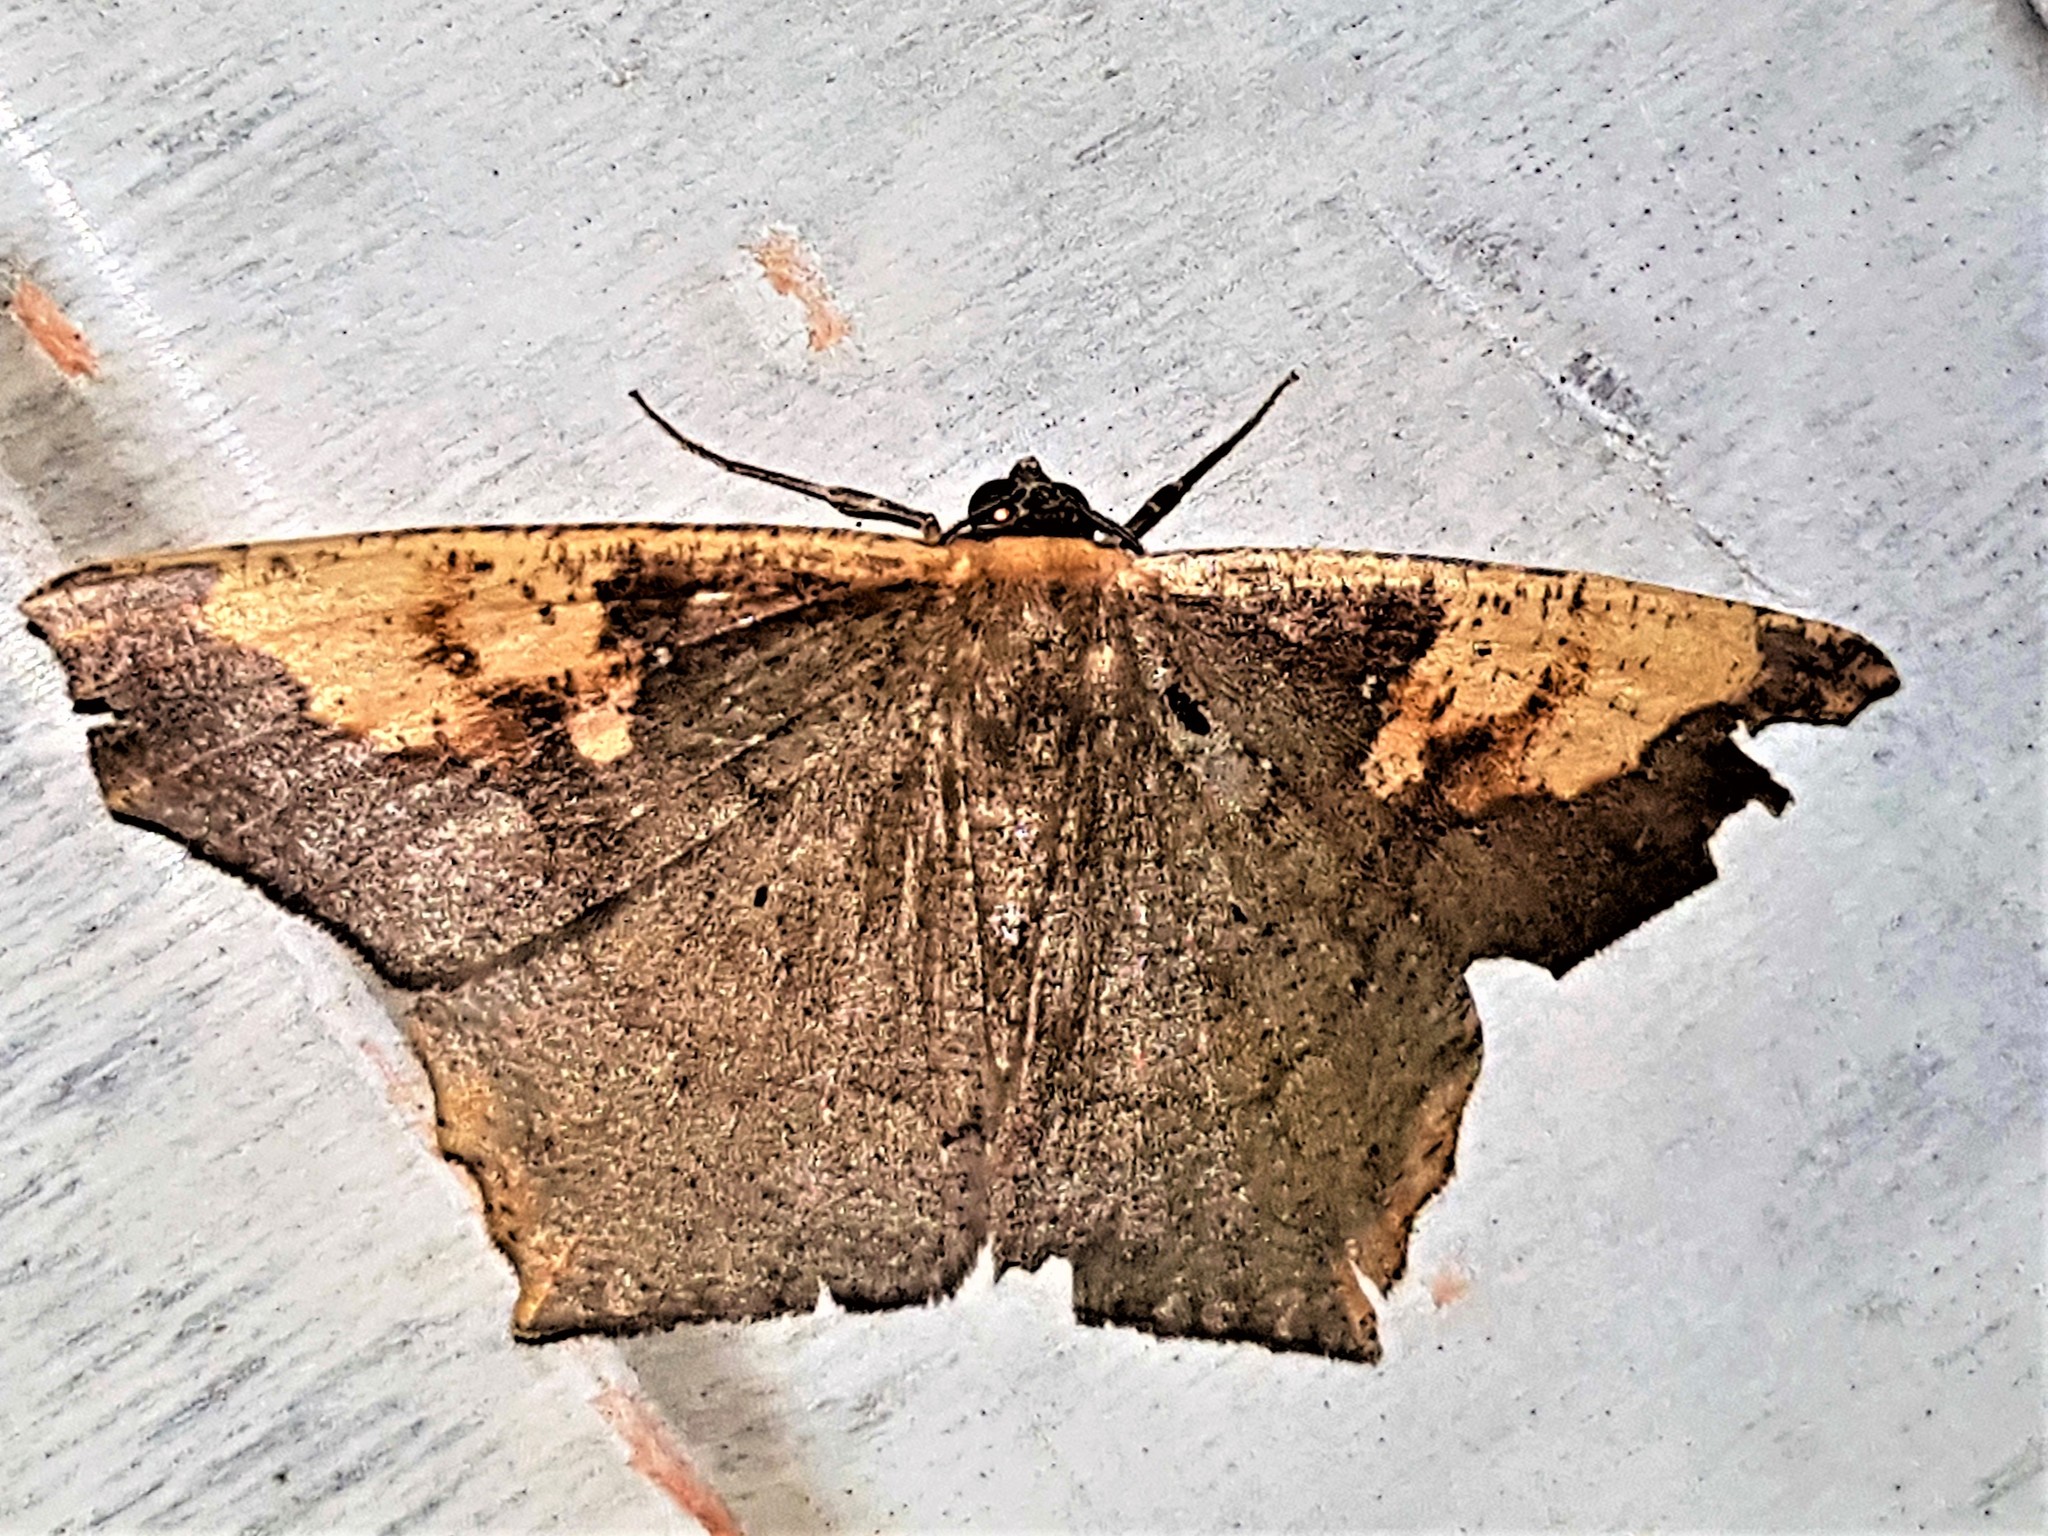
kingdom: Animalia
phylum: Arthropoda
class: Insecta
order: Lepidoptera
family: Geometridae
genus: Paragonia
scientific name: Paragonia tasima
